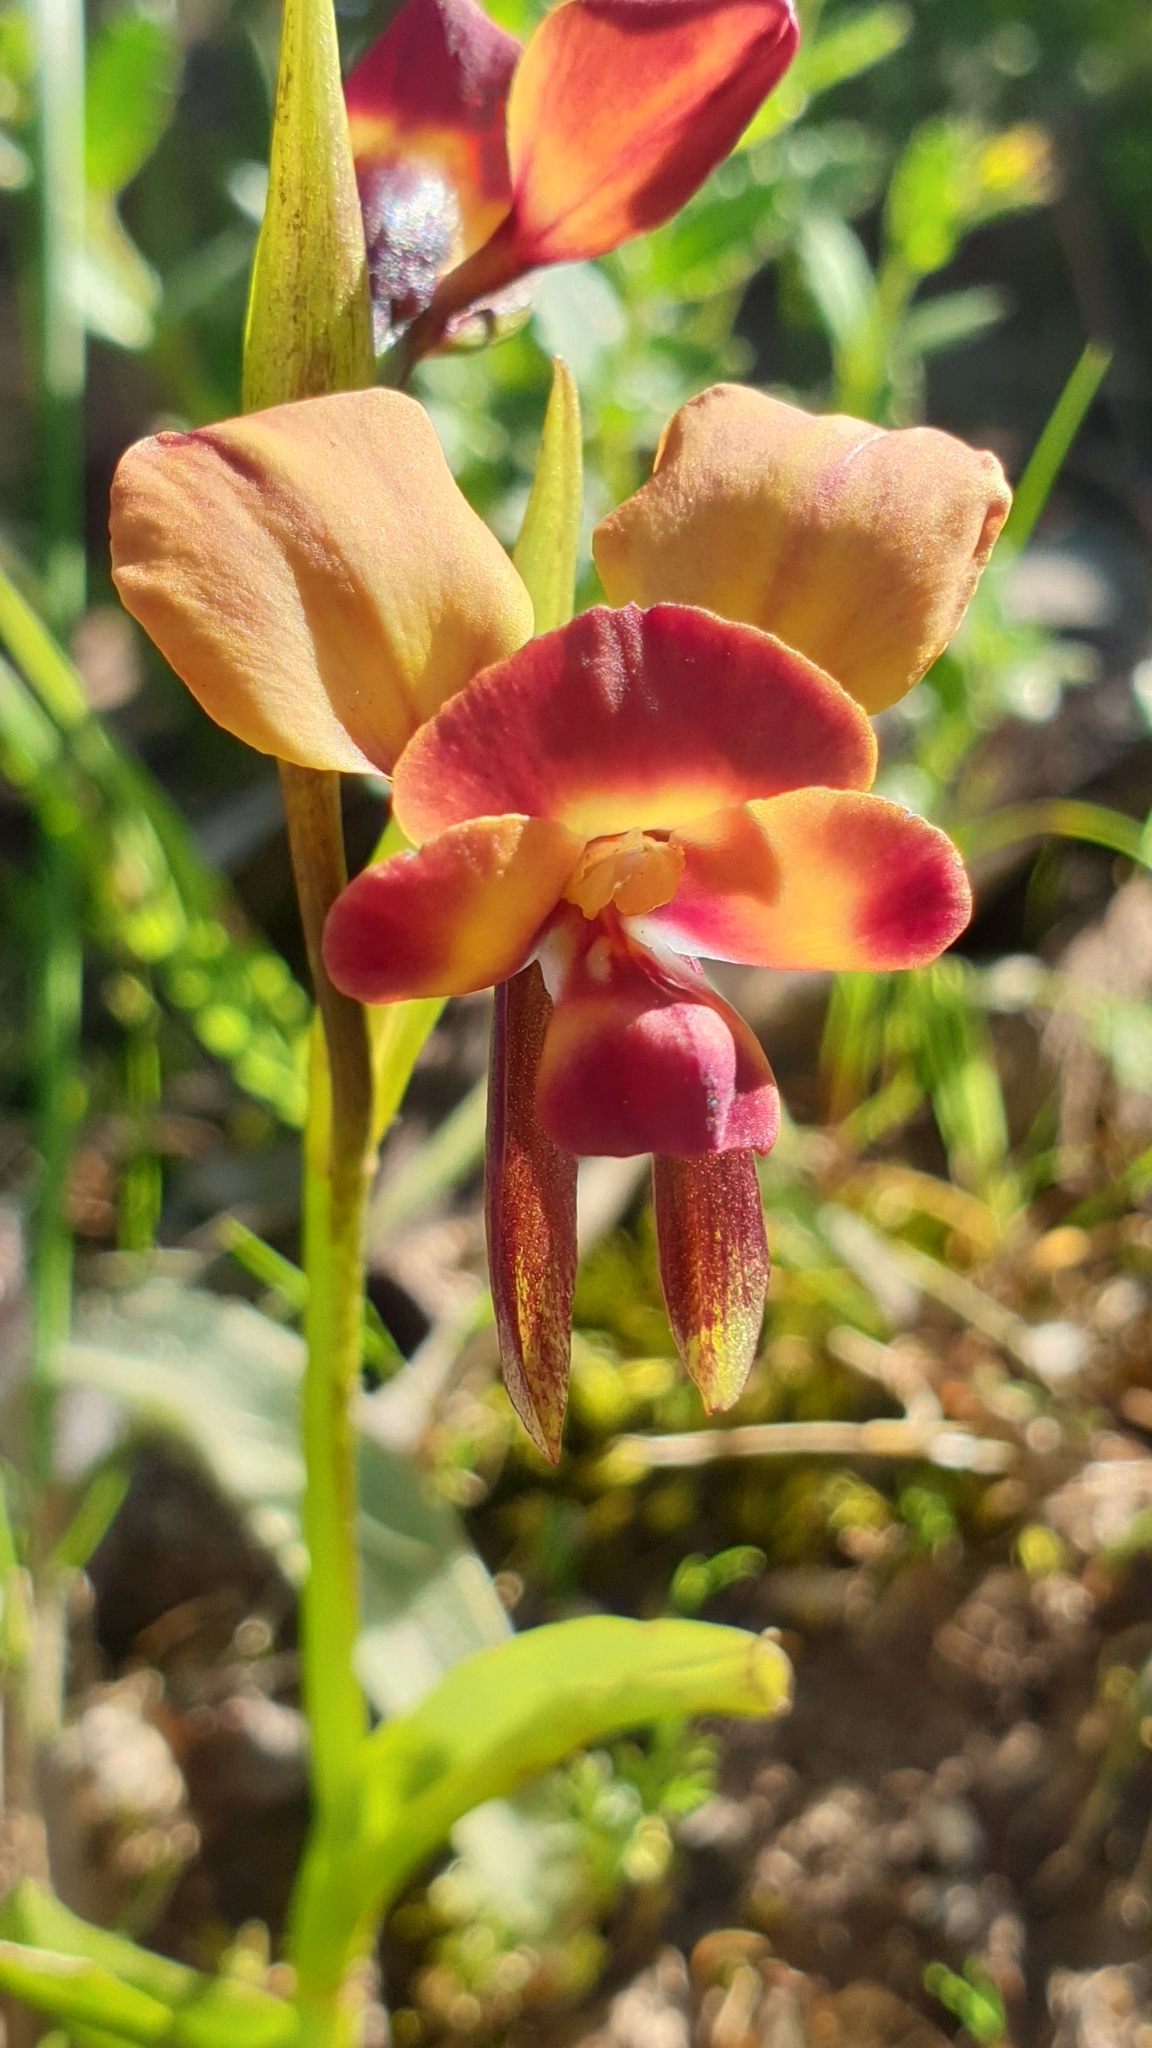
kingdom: Plantae
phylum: Tracheophyta
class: Liliopsida
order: Asparagales
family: Orchidaceae
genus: Diuris
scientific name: Diuris orientis
